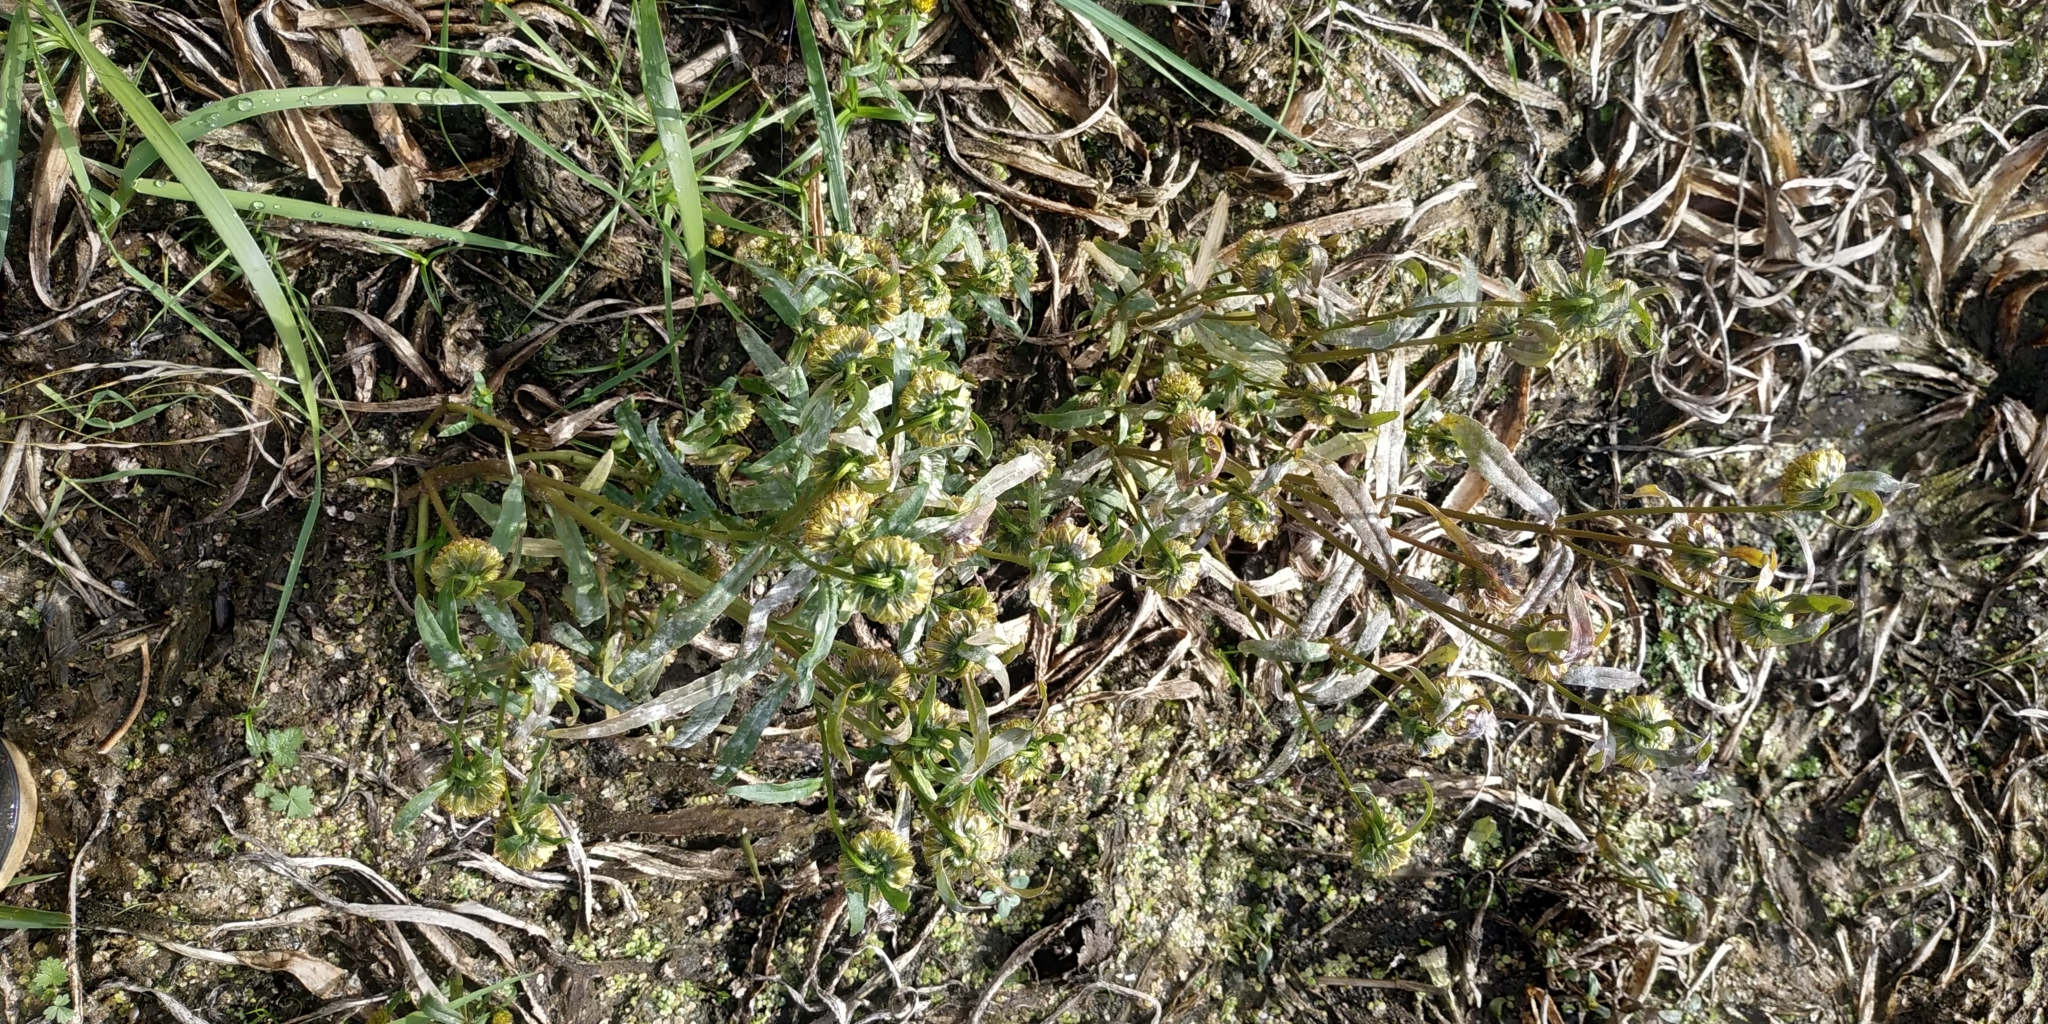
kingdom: Plantae
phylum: Tracheophyta
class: Magnoliopsida
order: Asterales
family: Asteraceae
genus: Bidens
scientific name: Bidens cernua
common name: Nodding bur-marigold
